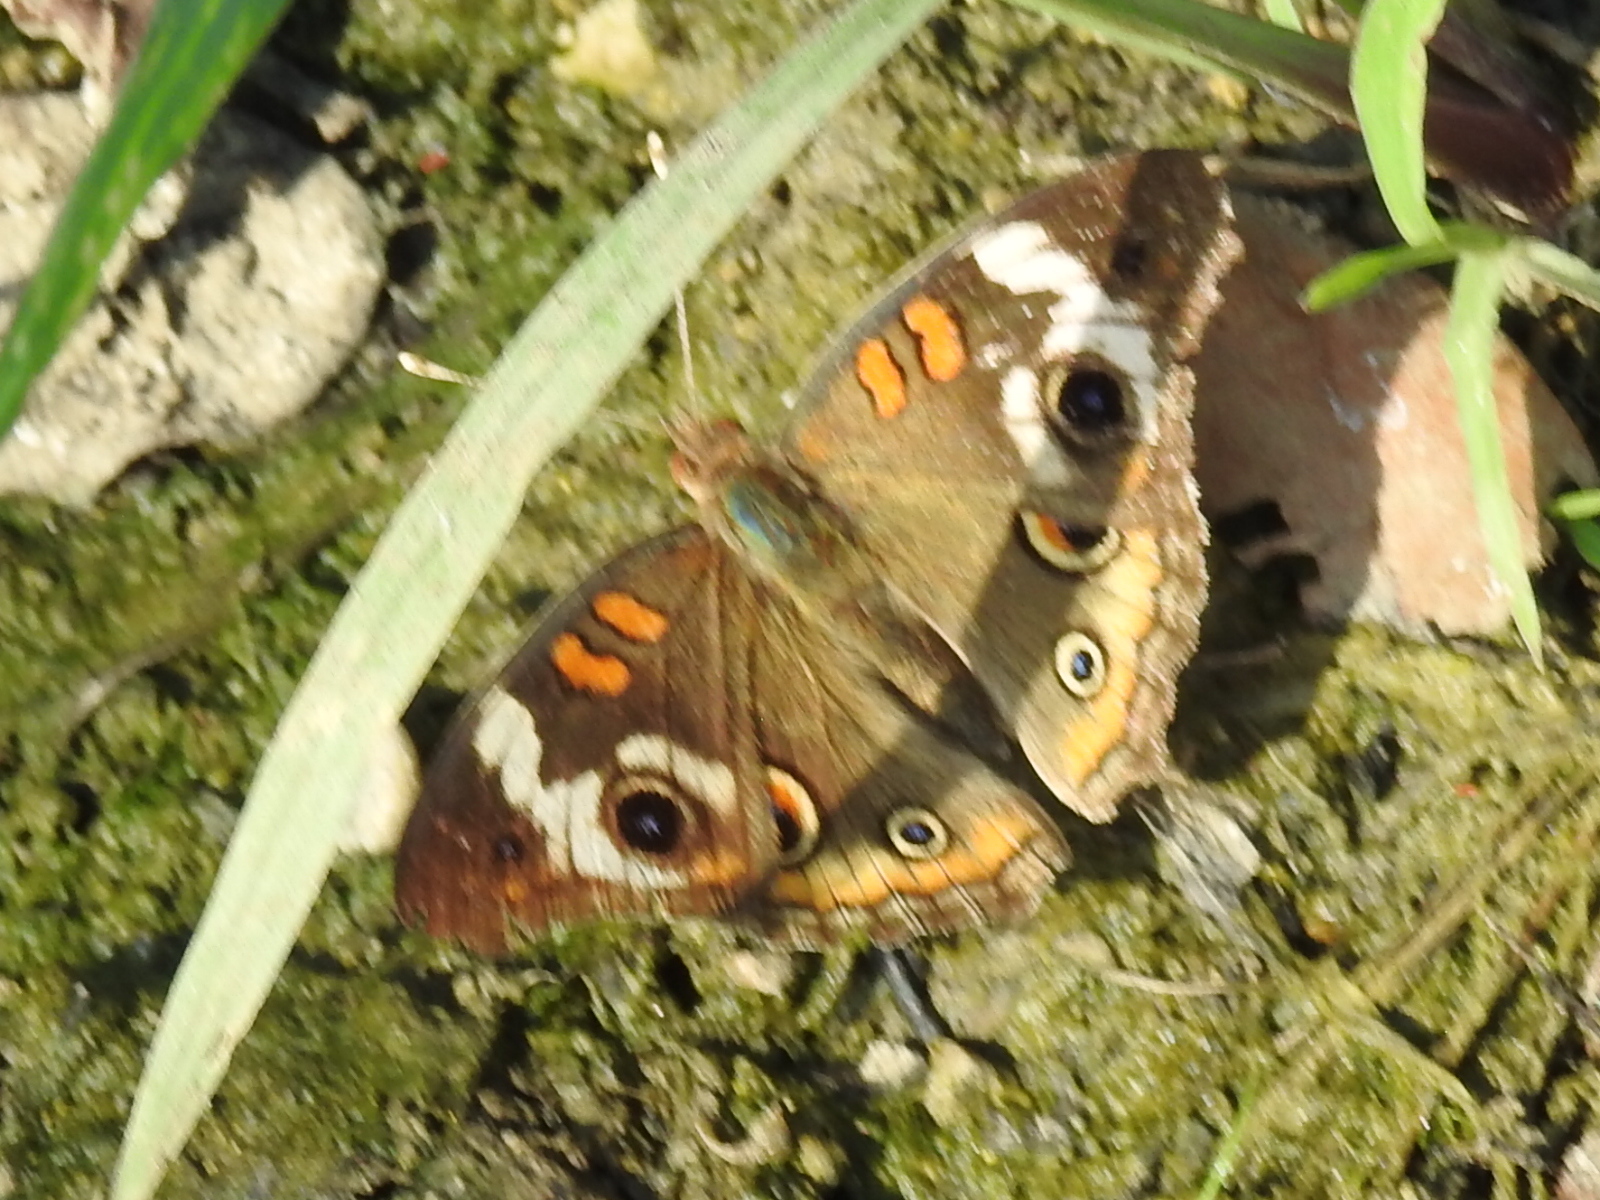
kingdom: Animalia
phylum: Arthropoda
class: Insecta
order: Lepidoptera
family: Nymphalidae
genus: Junonia
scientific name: Junonia coenia
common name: Common buckeye
